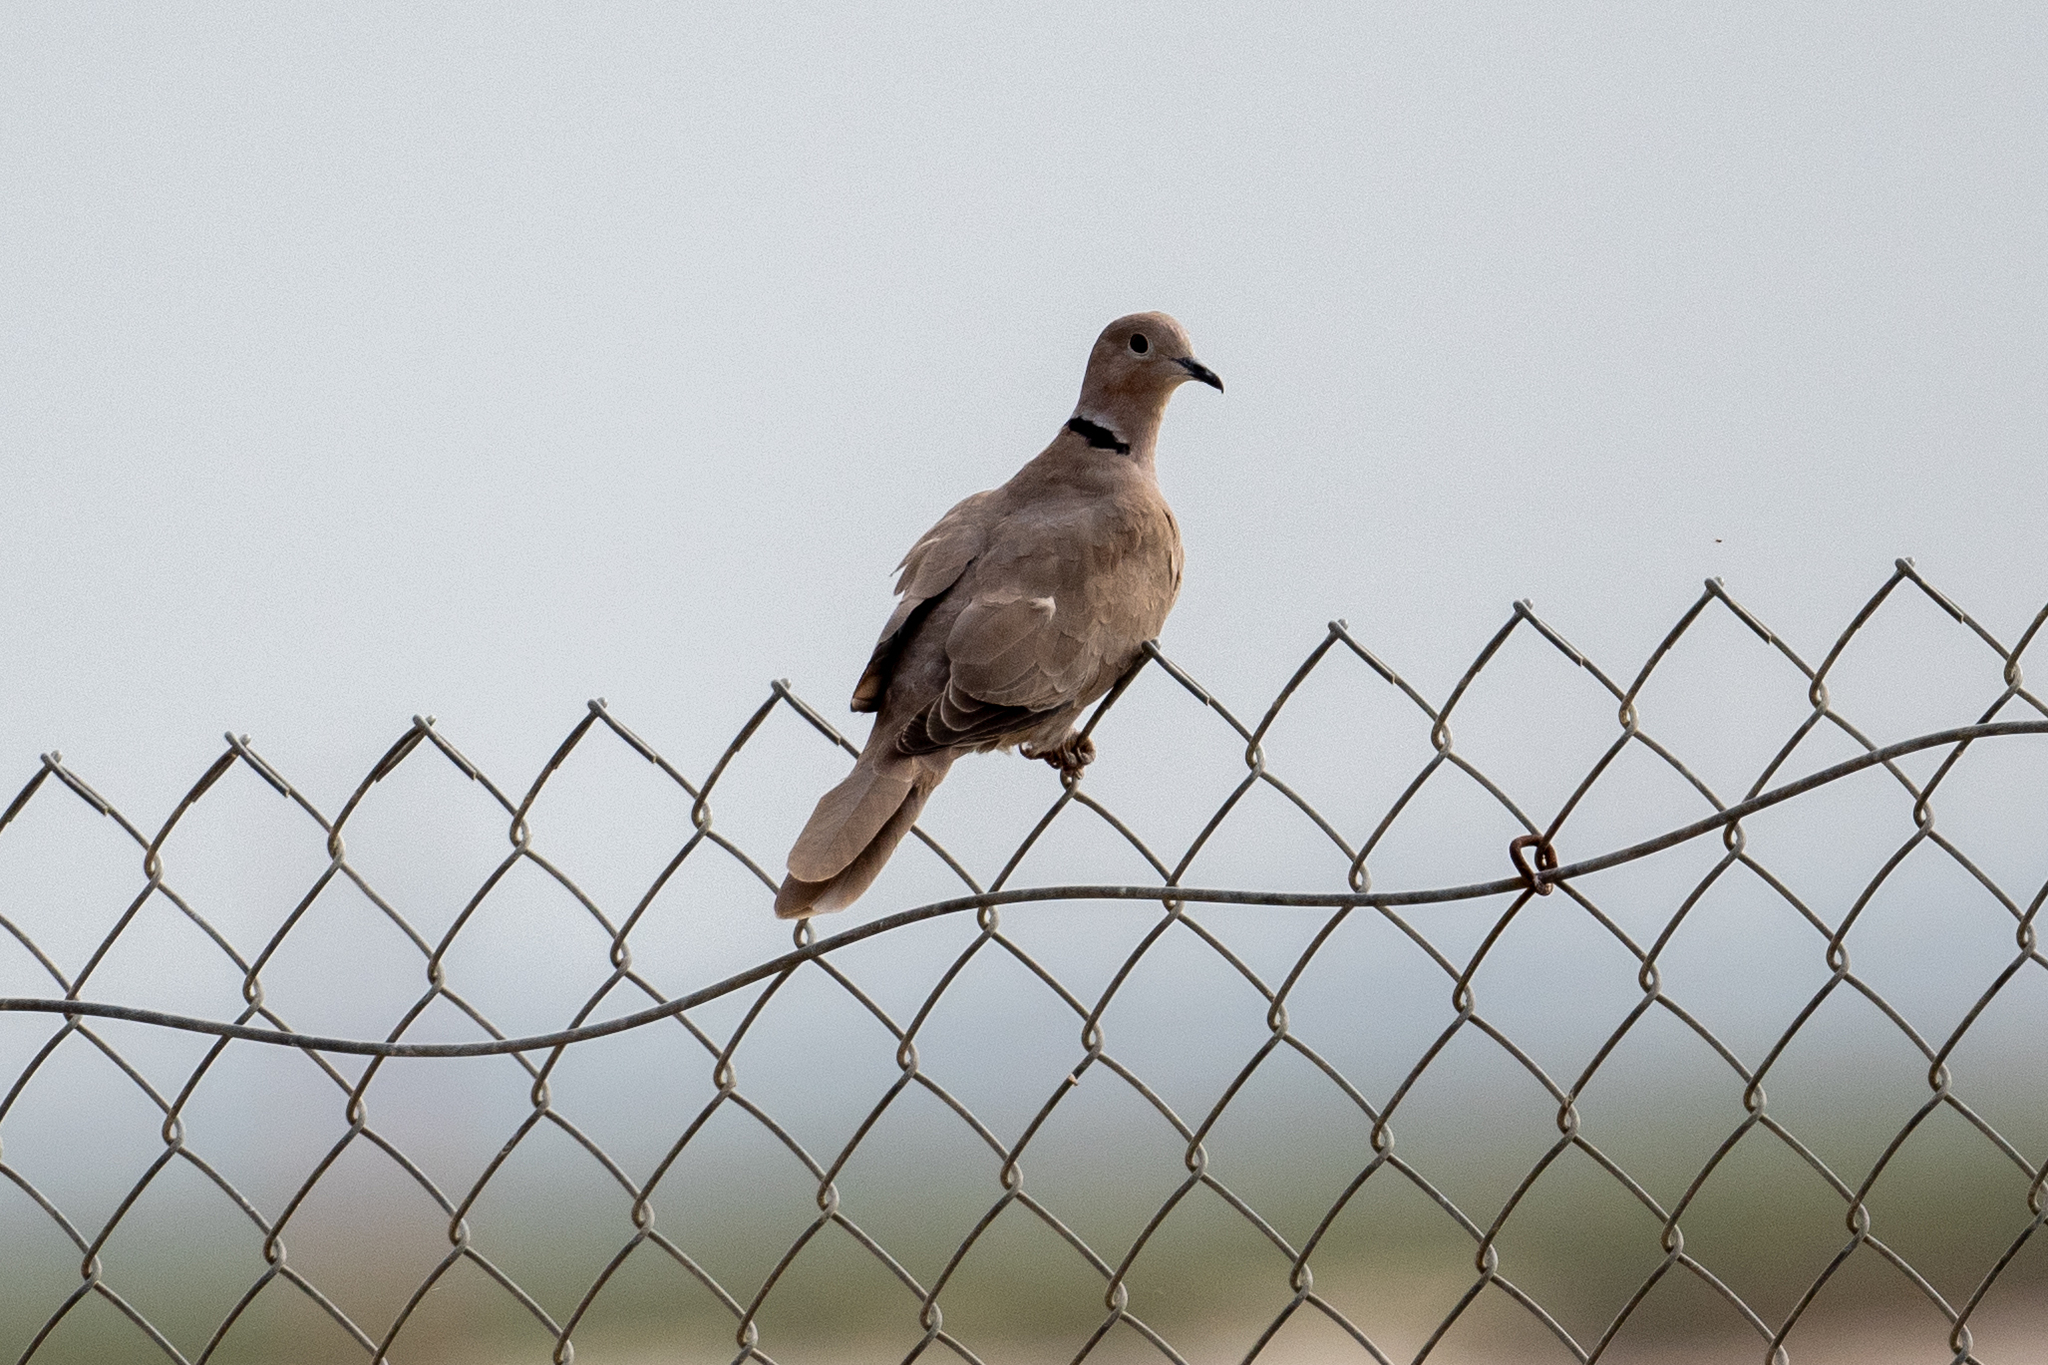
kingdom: Animalia
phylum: Chordata
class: Aves
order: Columbiformes
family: Columbidae
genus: Streptopelia
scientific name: Streptopelia decaocto
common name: Eurasian collared dove
